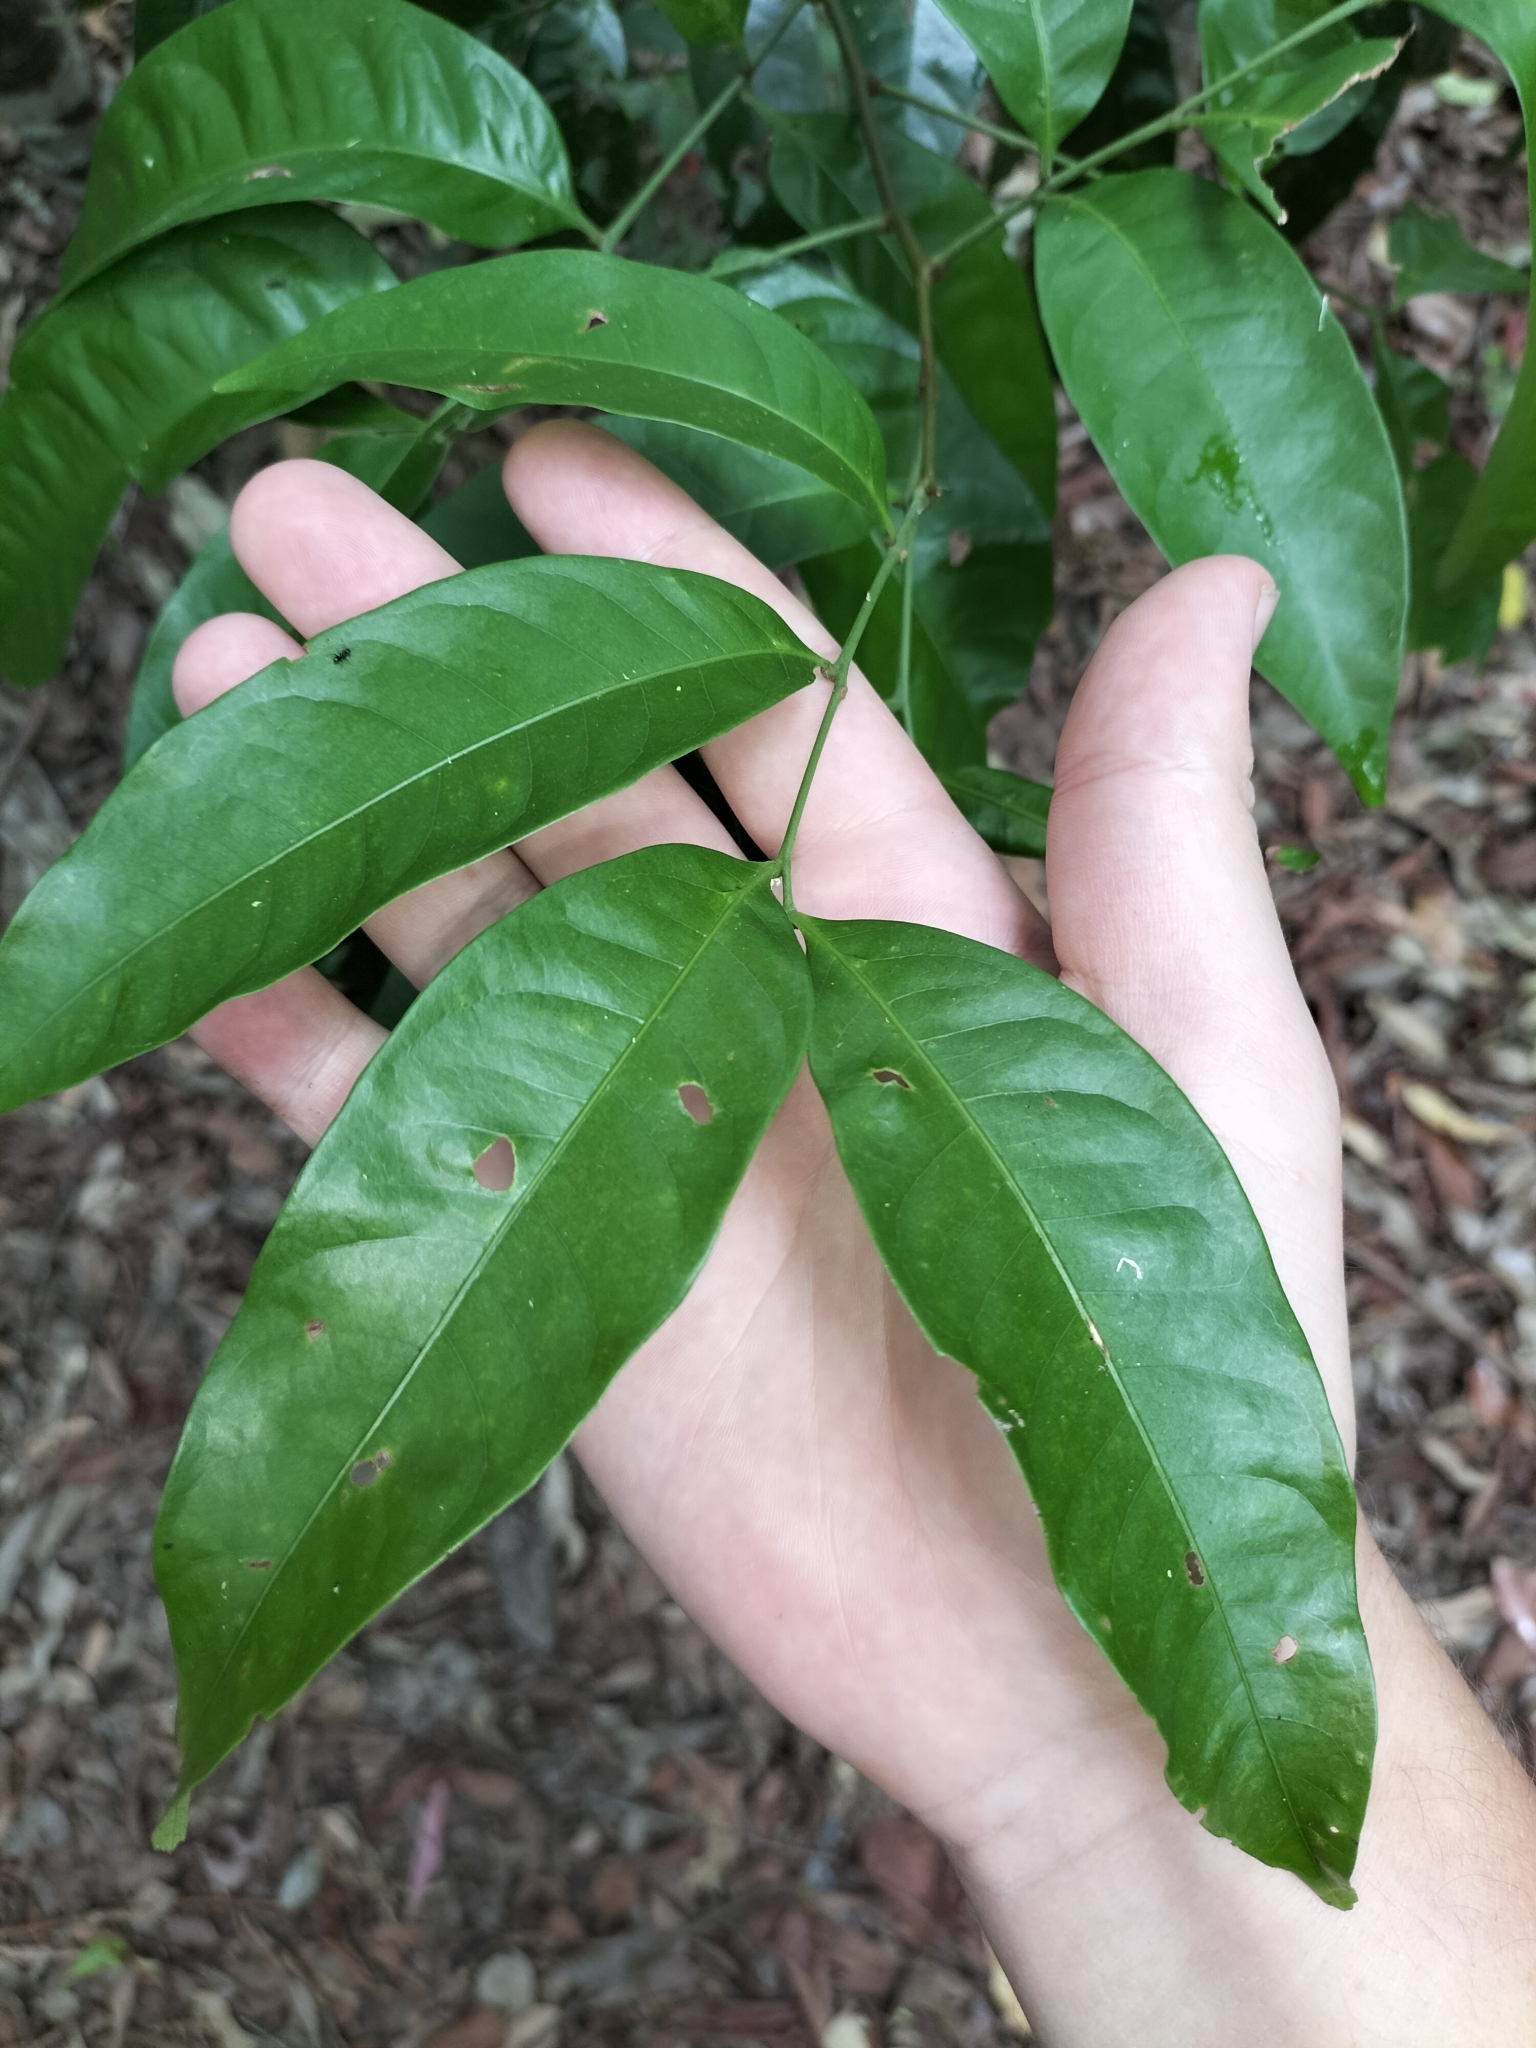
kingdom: Plantae
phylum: Tracheophyta
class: Magnoliopsida
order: Sapindales
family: Sapindaceae
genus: Guioa
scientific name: Guioa acutifolia
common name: Northern guioa
